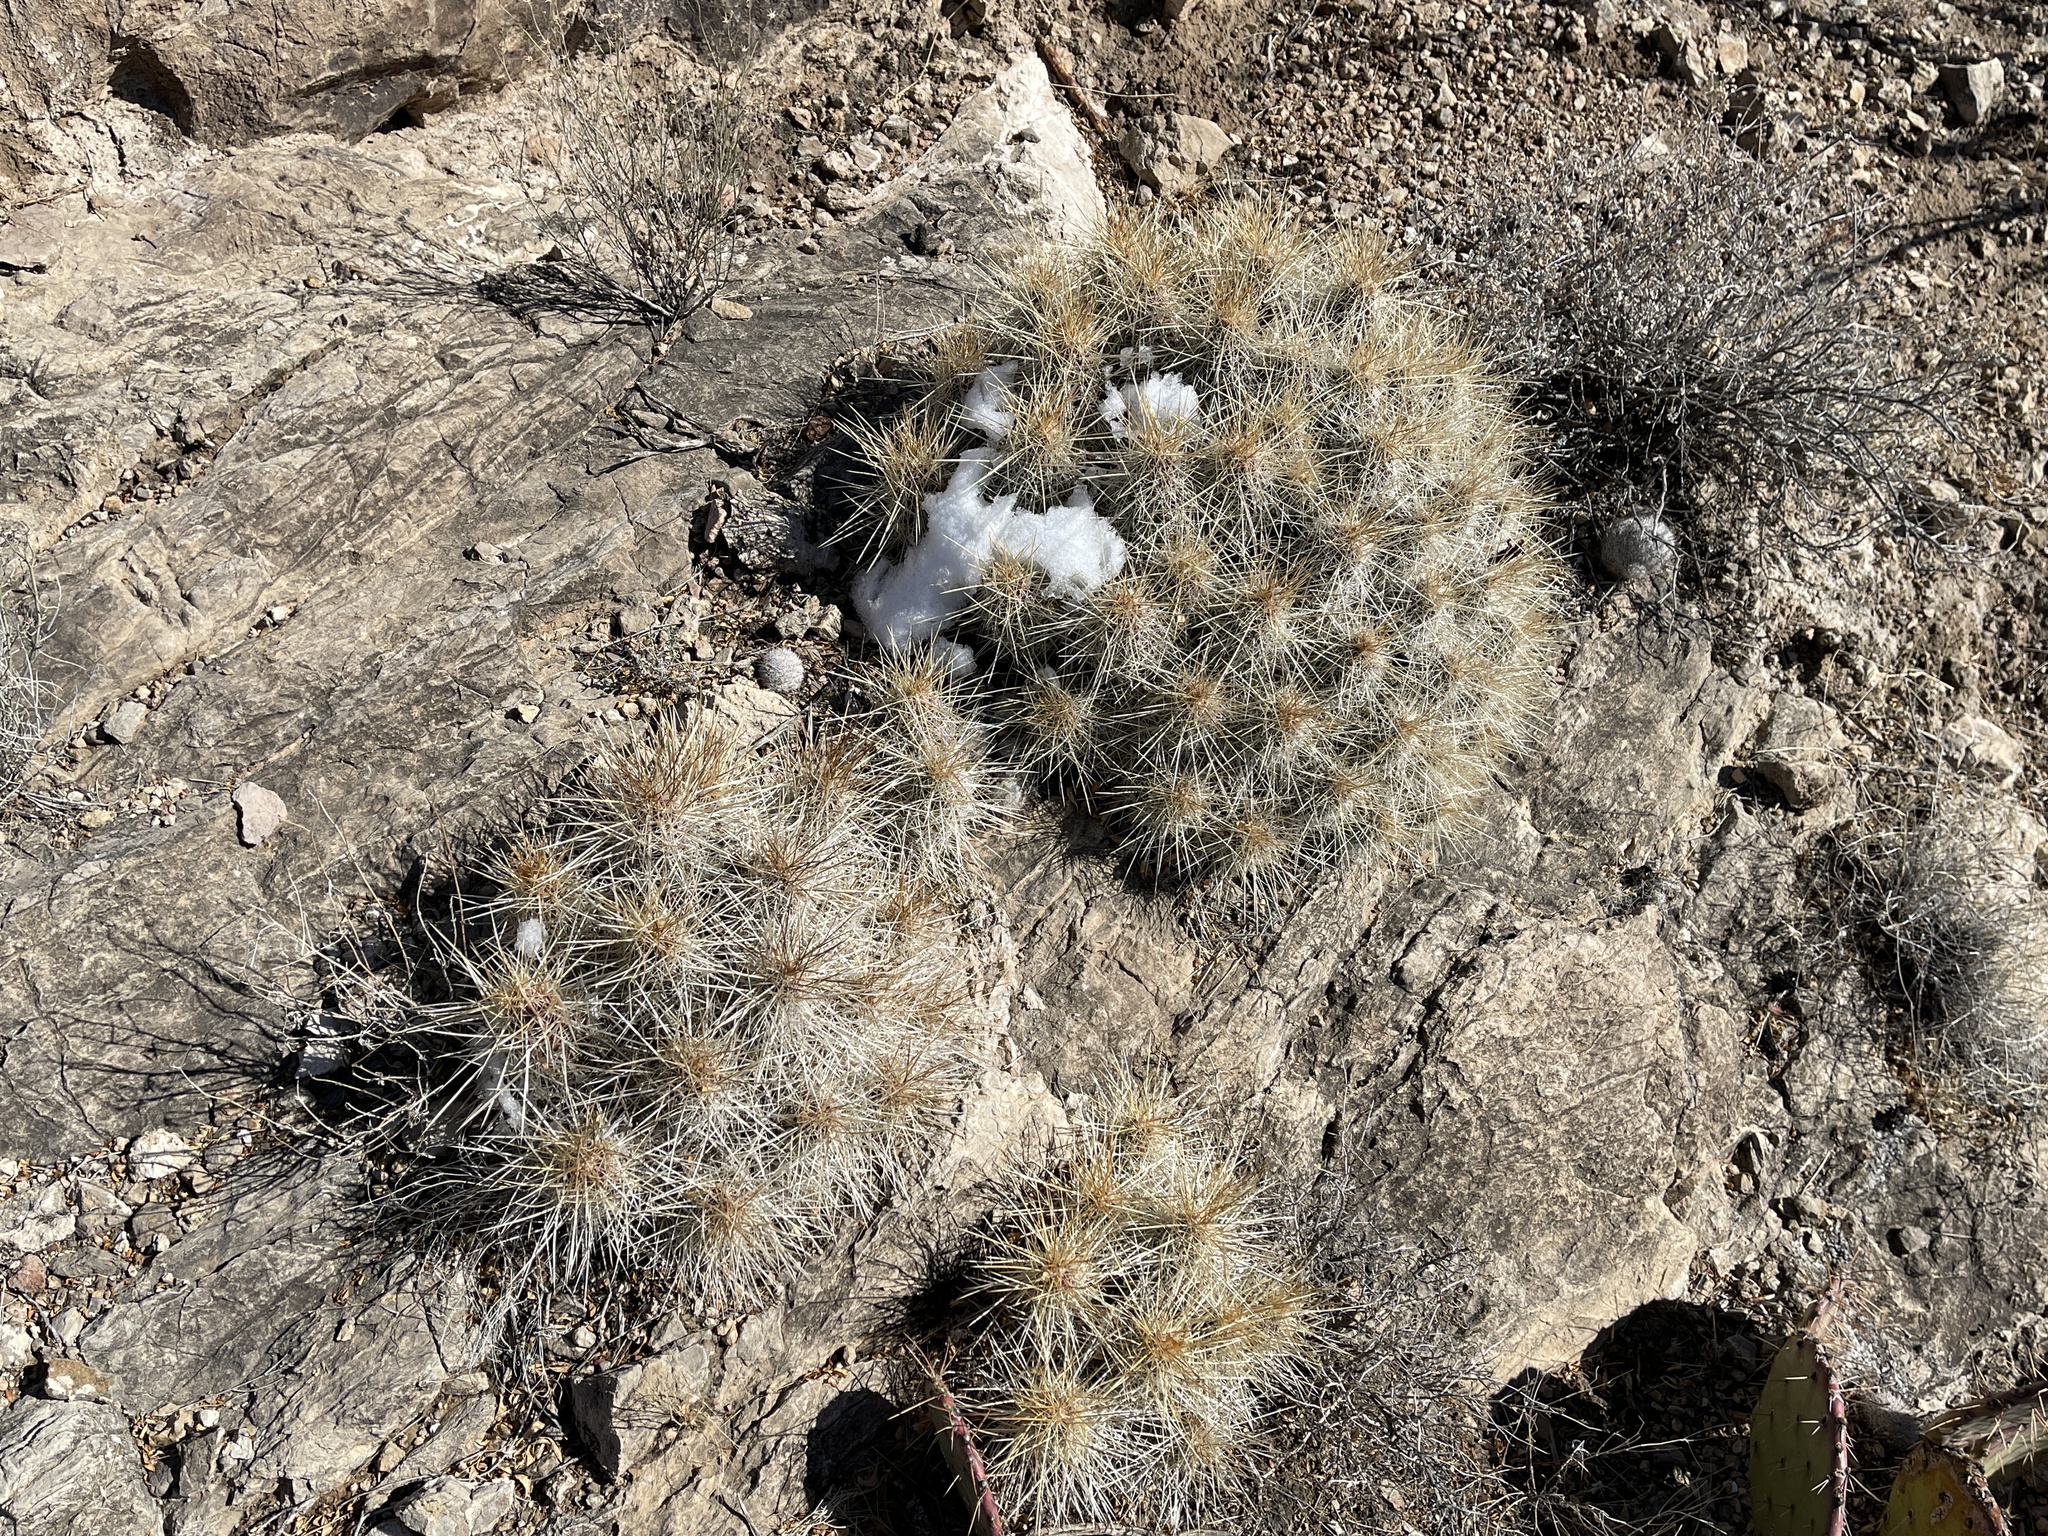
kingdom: Plantae
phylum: Tracheophyta
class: Magnoliopsida
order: Caryophyllales
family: Cactaceae
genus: Echinocereus
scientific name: Echinocereus stramineus
